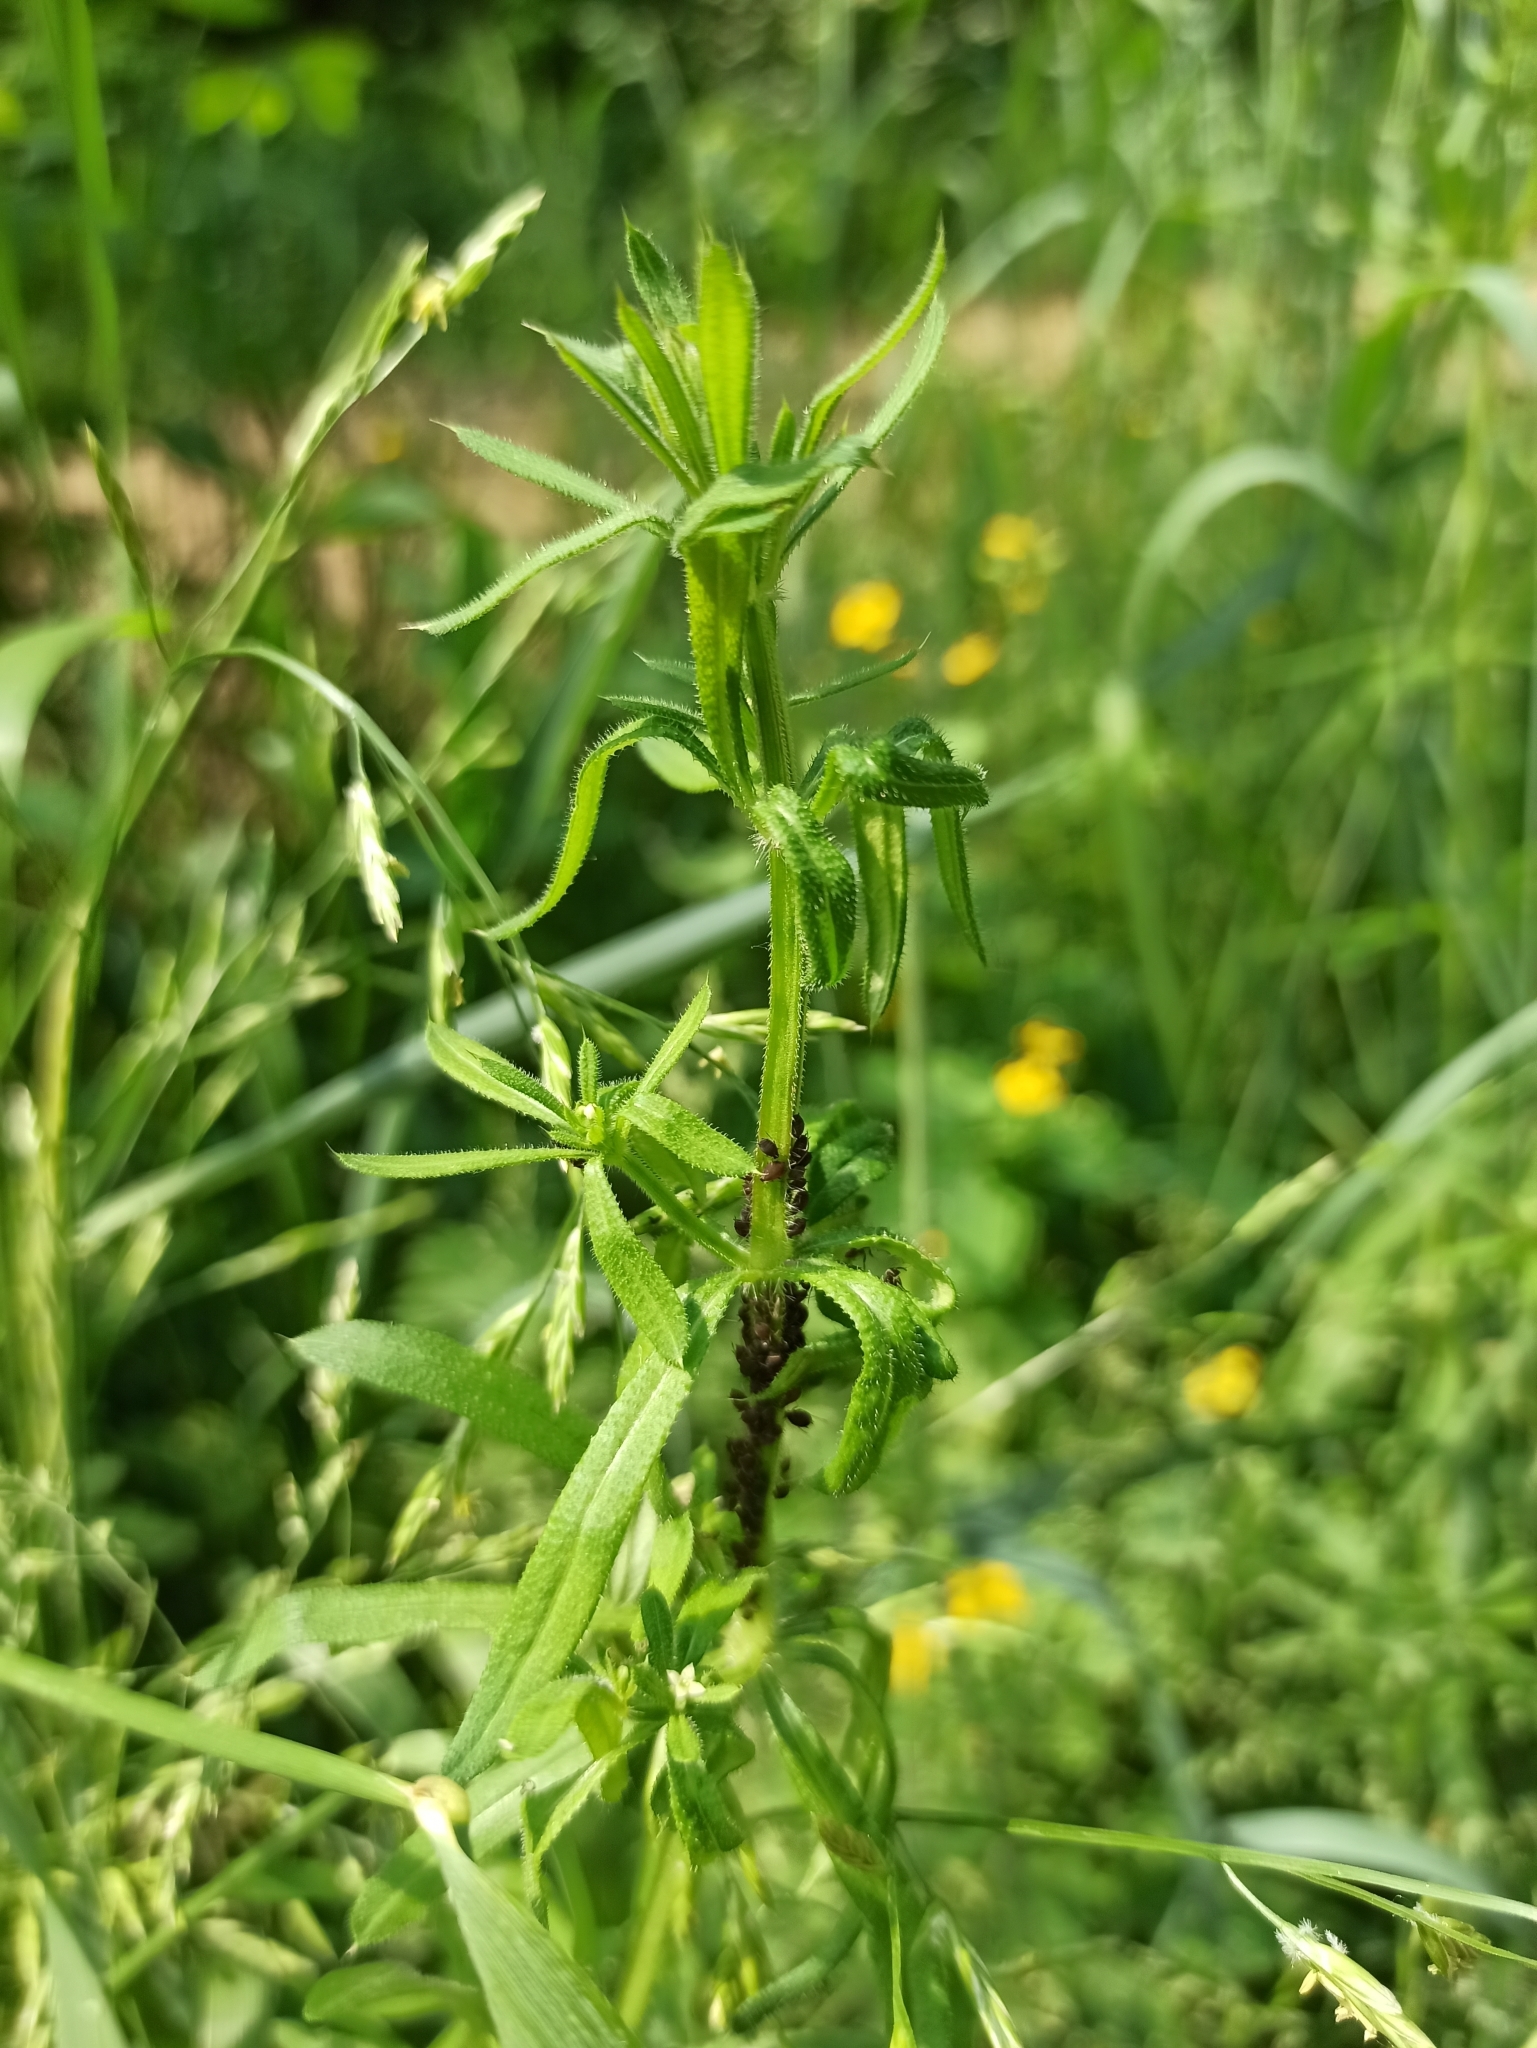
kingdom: Plantae
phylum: Tracheophyta
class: Magnoliopsida
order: Gentianales
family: Rubiaceae
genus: Galium
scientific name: Galium aparine
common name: Cleavers
